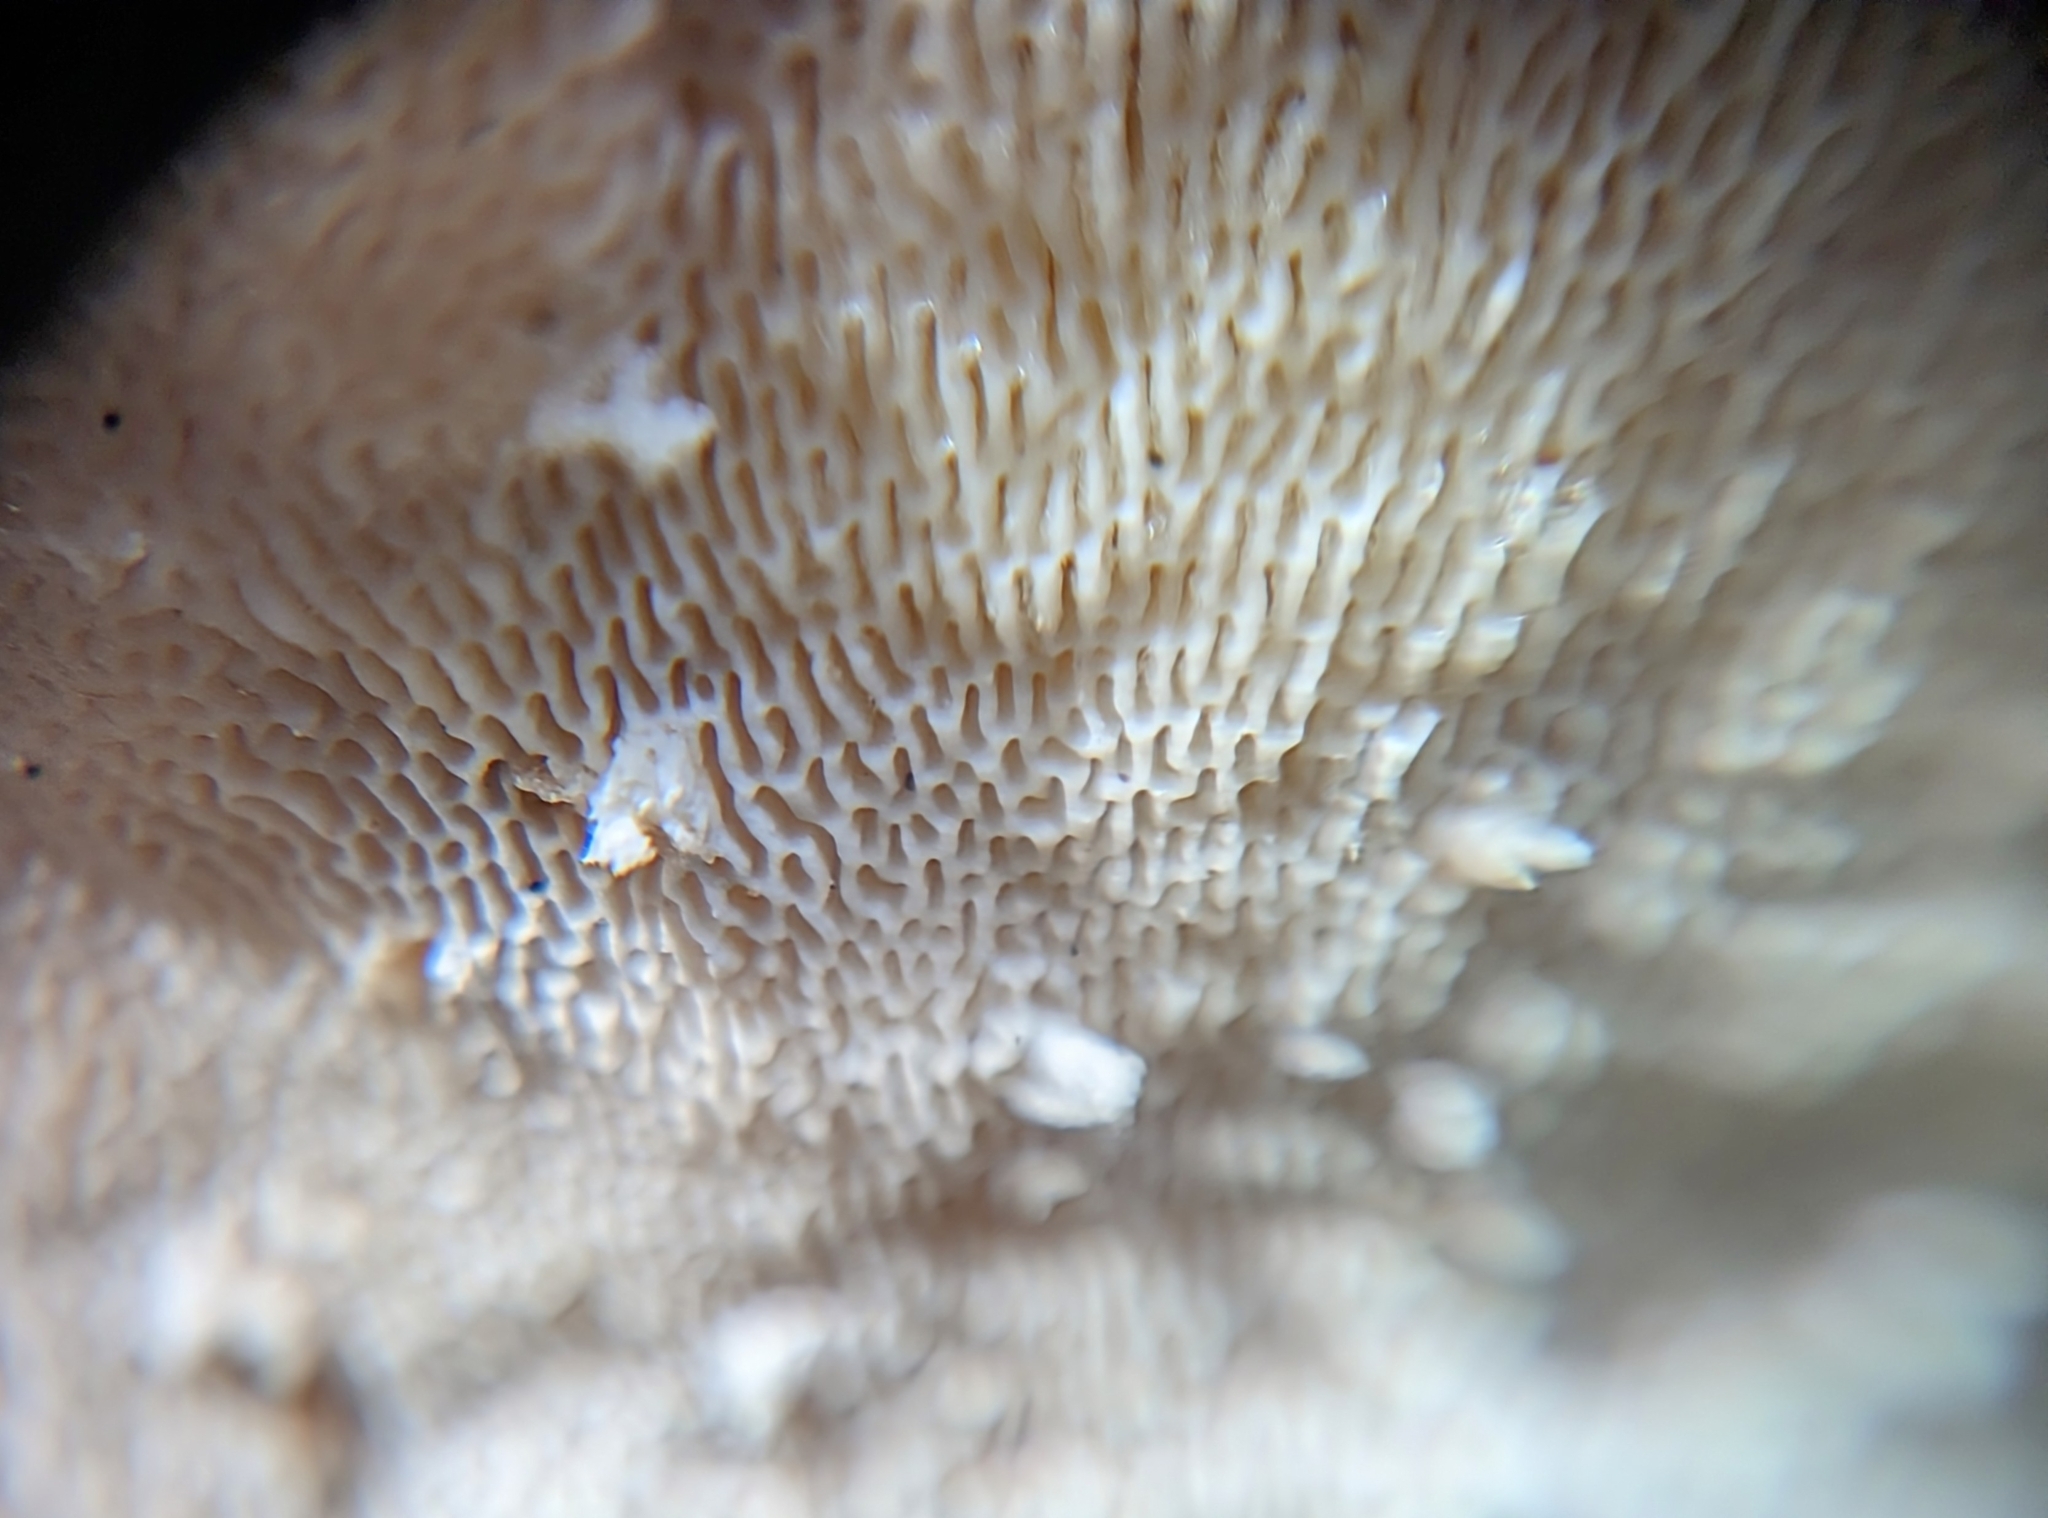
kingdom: Fungi
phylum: Basidiomycota
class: Agaricomycetes
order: Polyporales
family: Polyporaceae
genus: Trametes
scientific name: Trametes gibbosa
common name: Lumpy bracket
